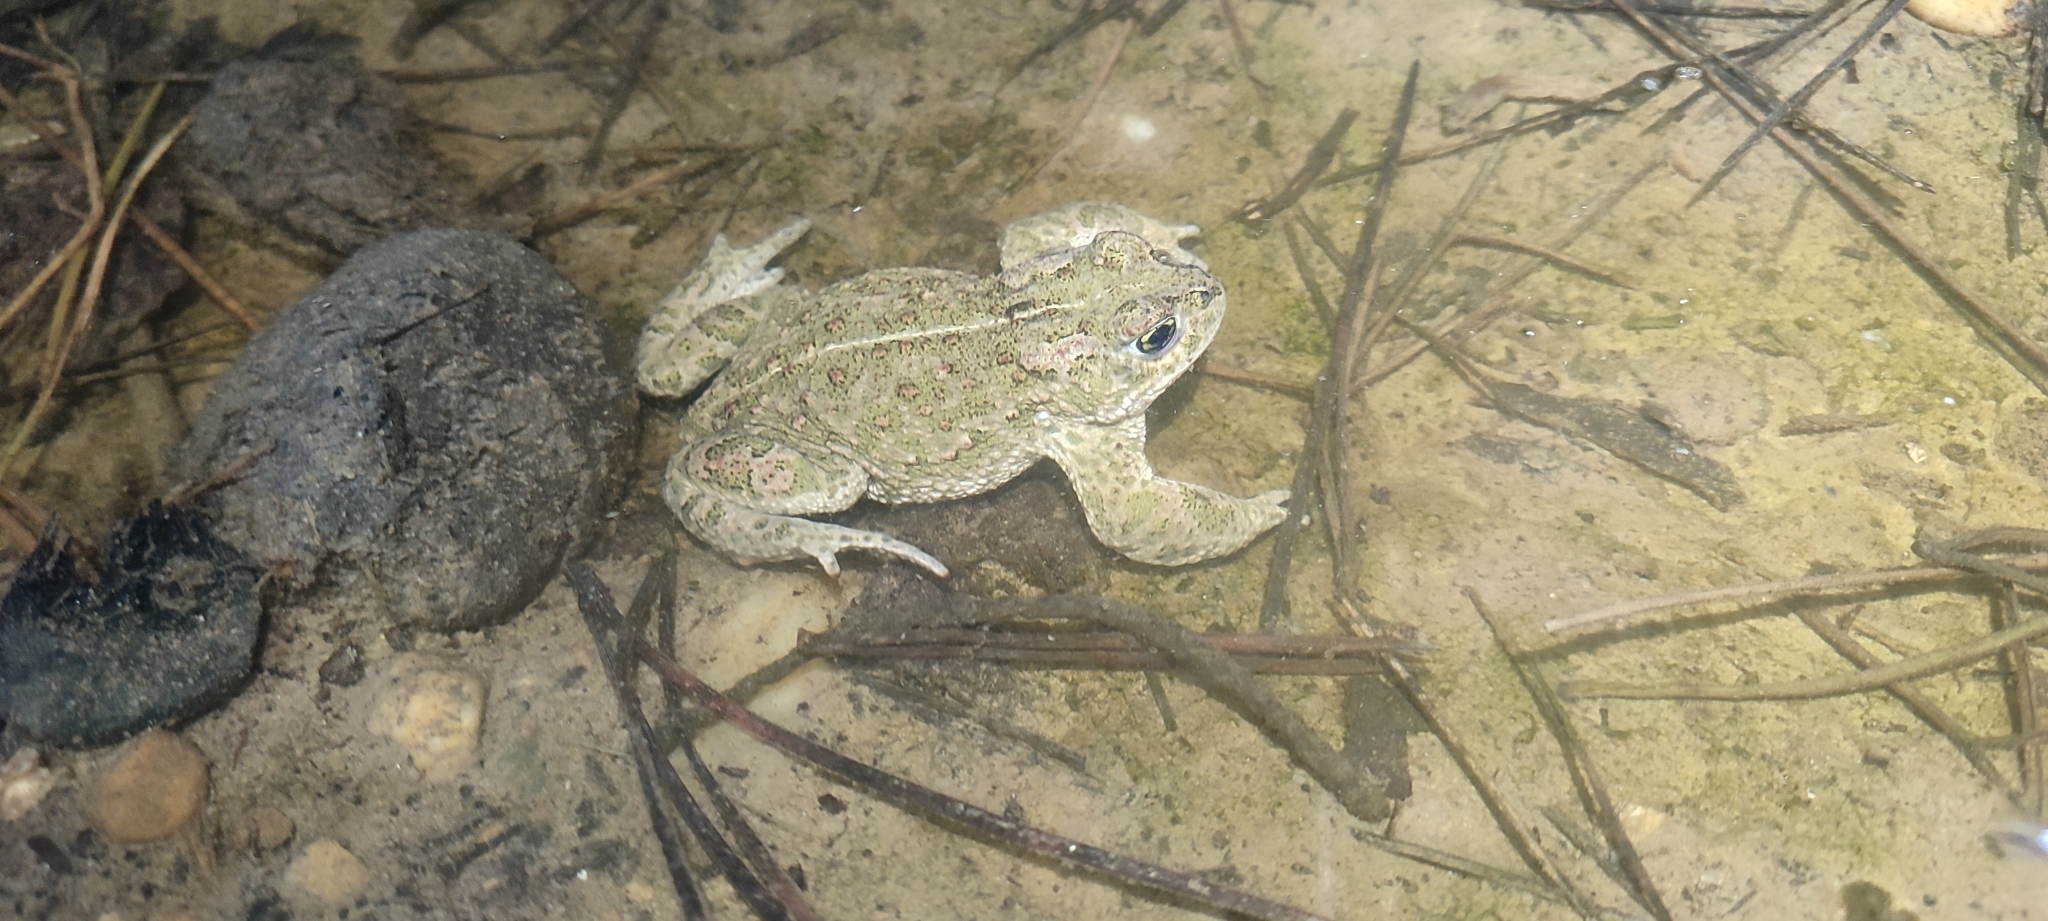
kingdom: Animalia
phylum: Chordata
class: Amphibia
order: Anura
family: Bufonidae
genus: Epidalea
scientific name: Epidalea calamita
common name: Natterjack toad
